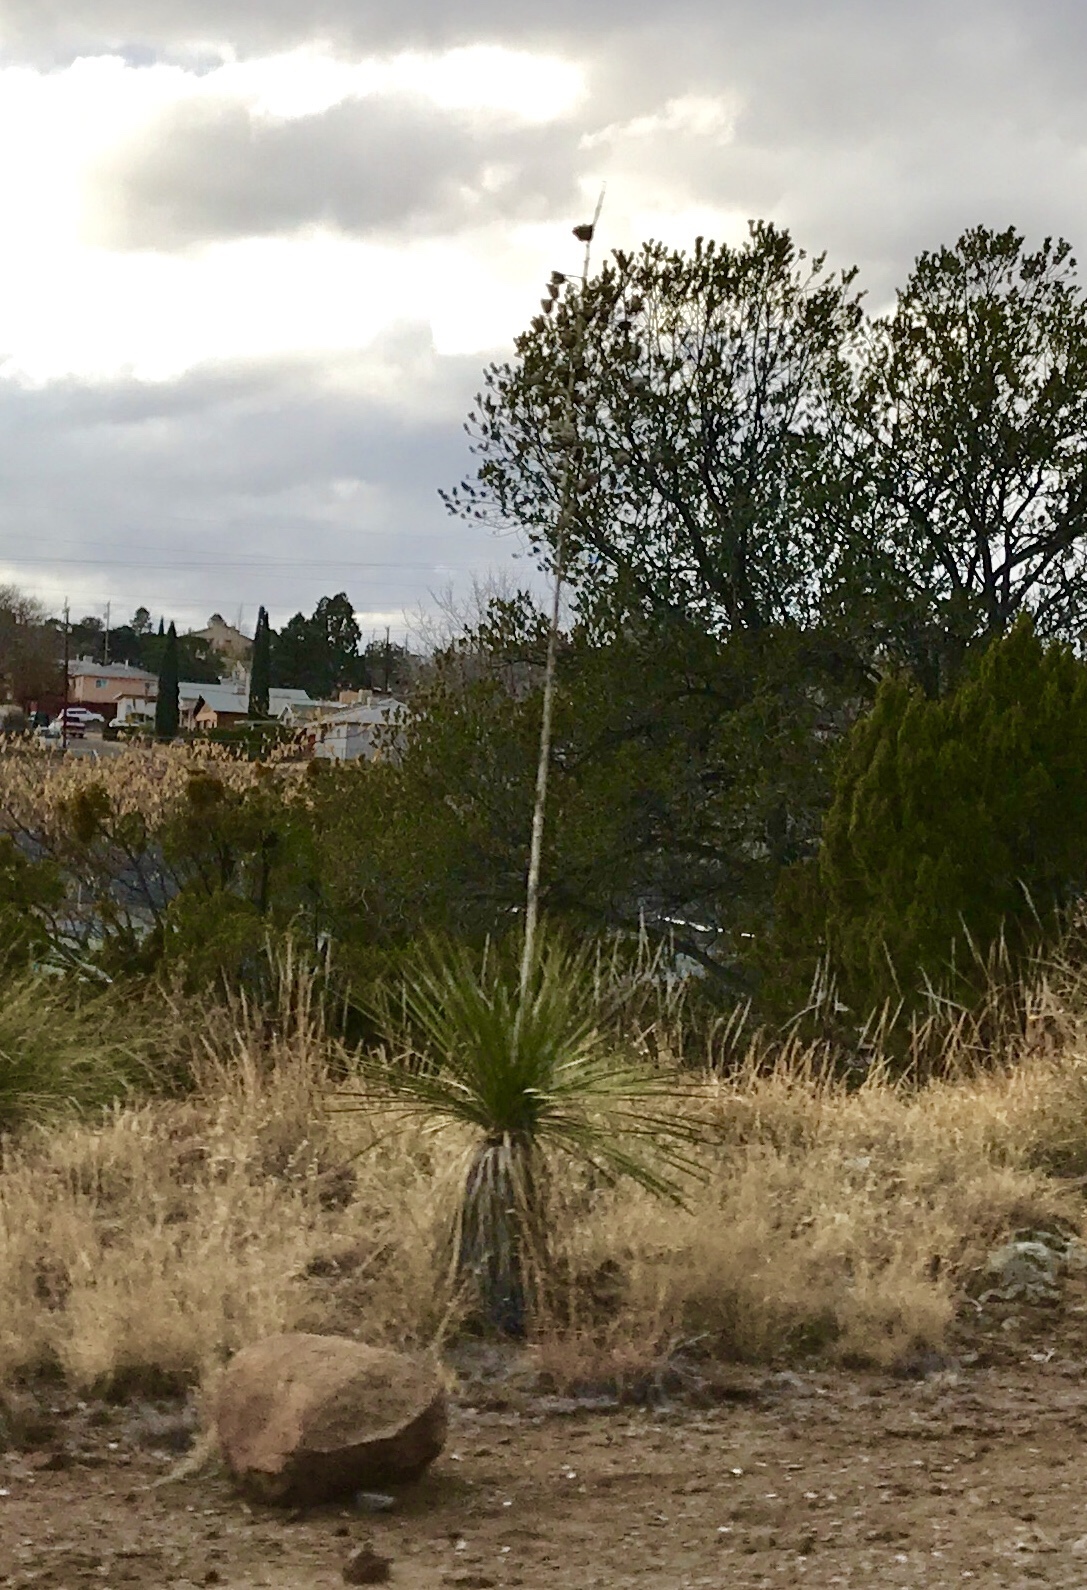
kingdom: Plantae
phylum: Tracheophyta
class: Liliopsida
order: Asparagales
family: Asparagaceae
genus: Yucca
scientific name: Yucca elata
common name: Palmella
